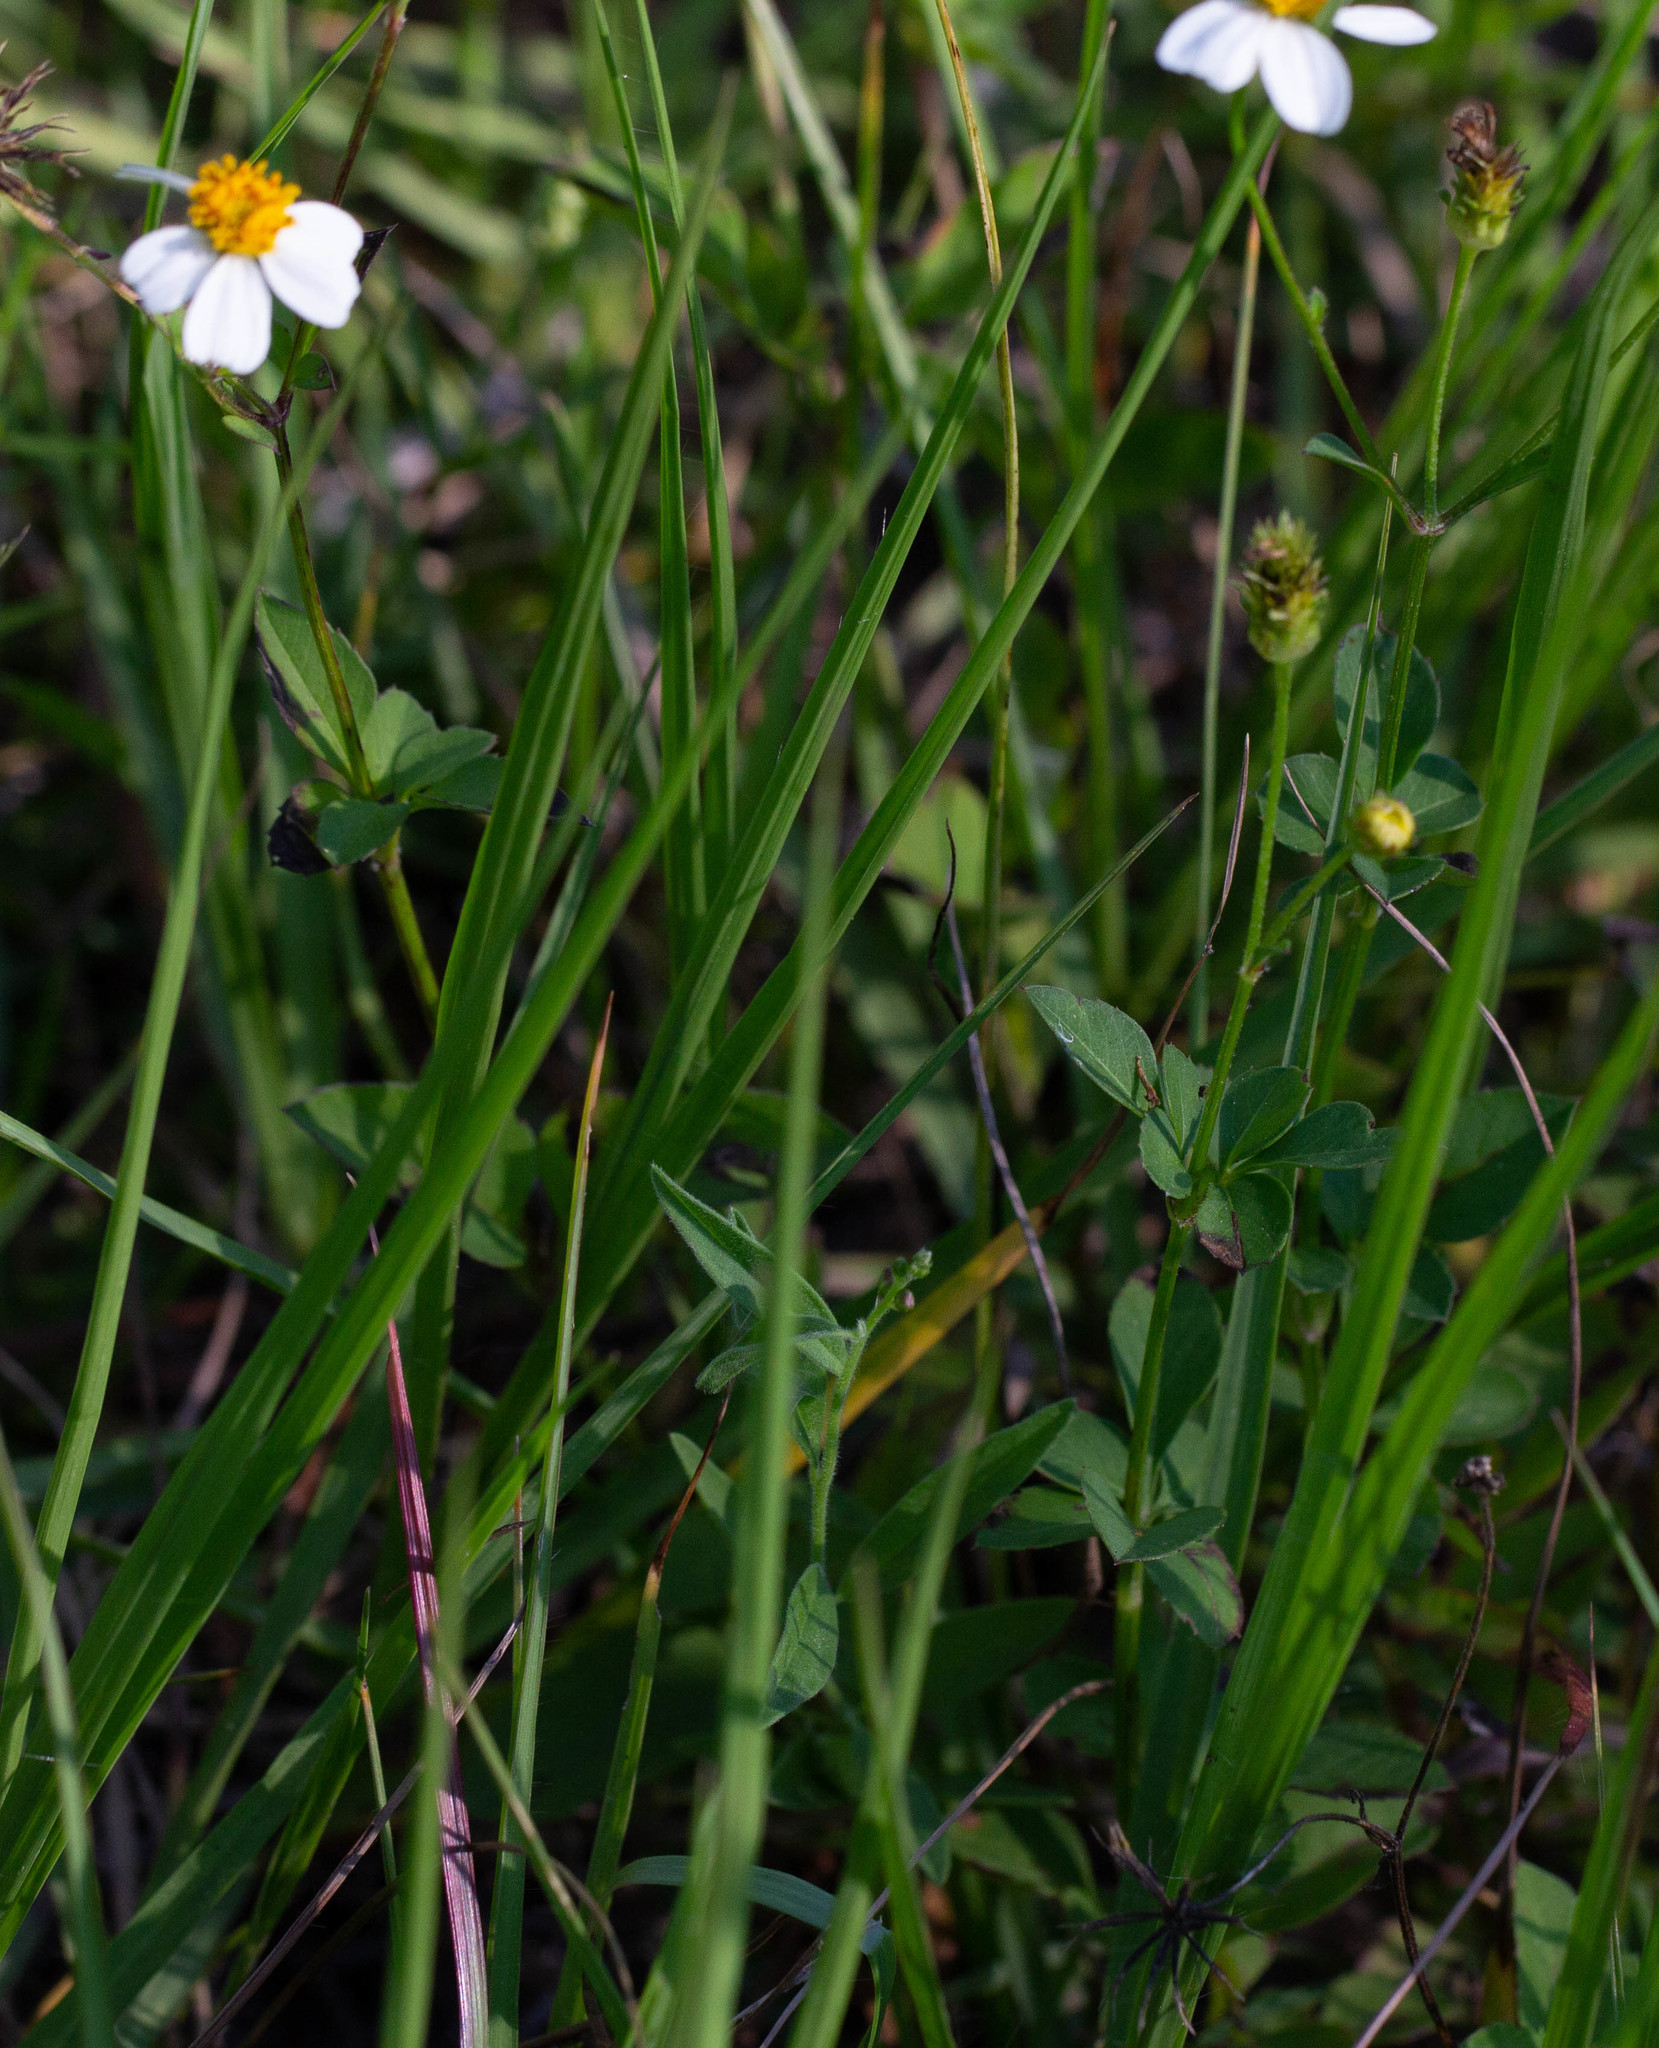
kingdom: Plantae
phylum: Tracheophyta
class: Magnoliopsida
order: Asterales
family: Asteraceae
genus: Bidens
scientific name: Bidens alba
